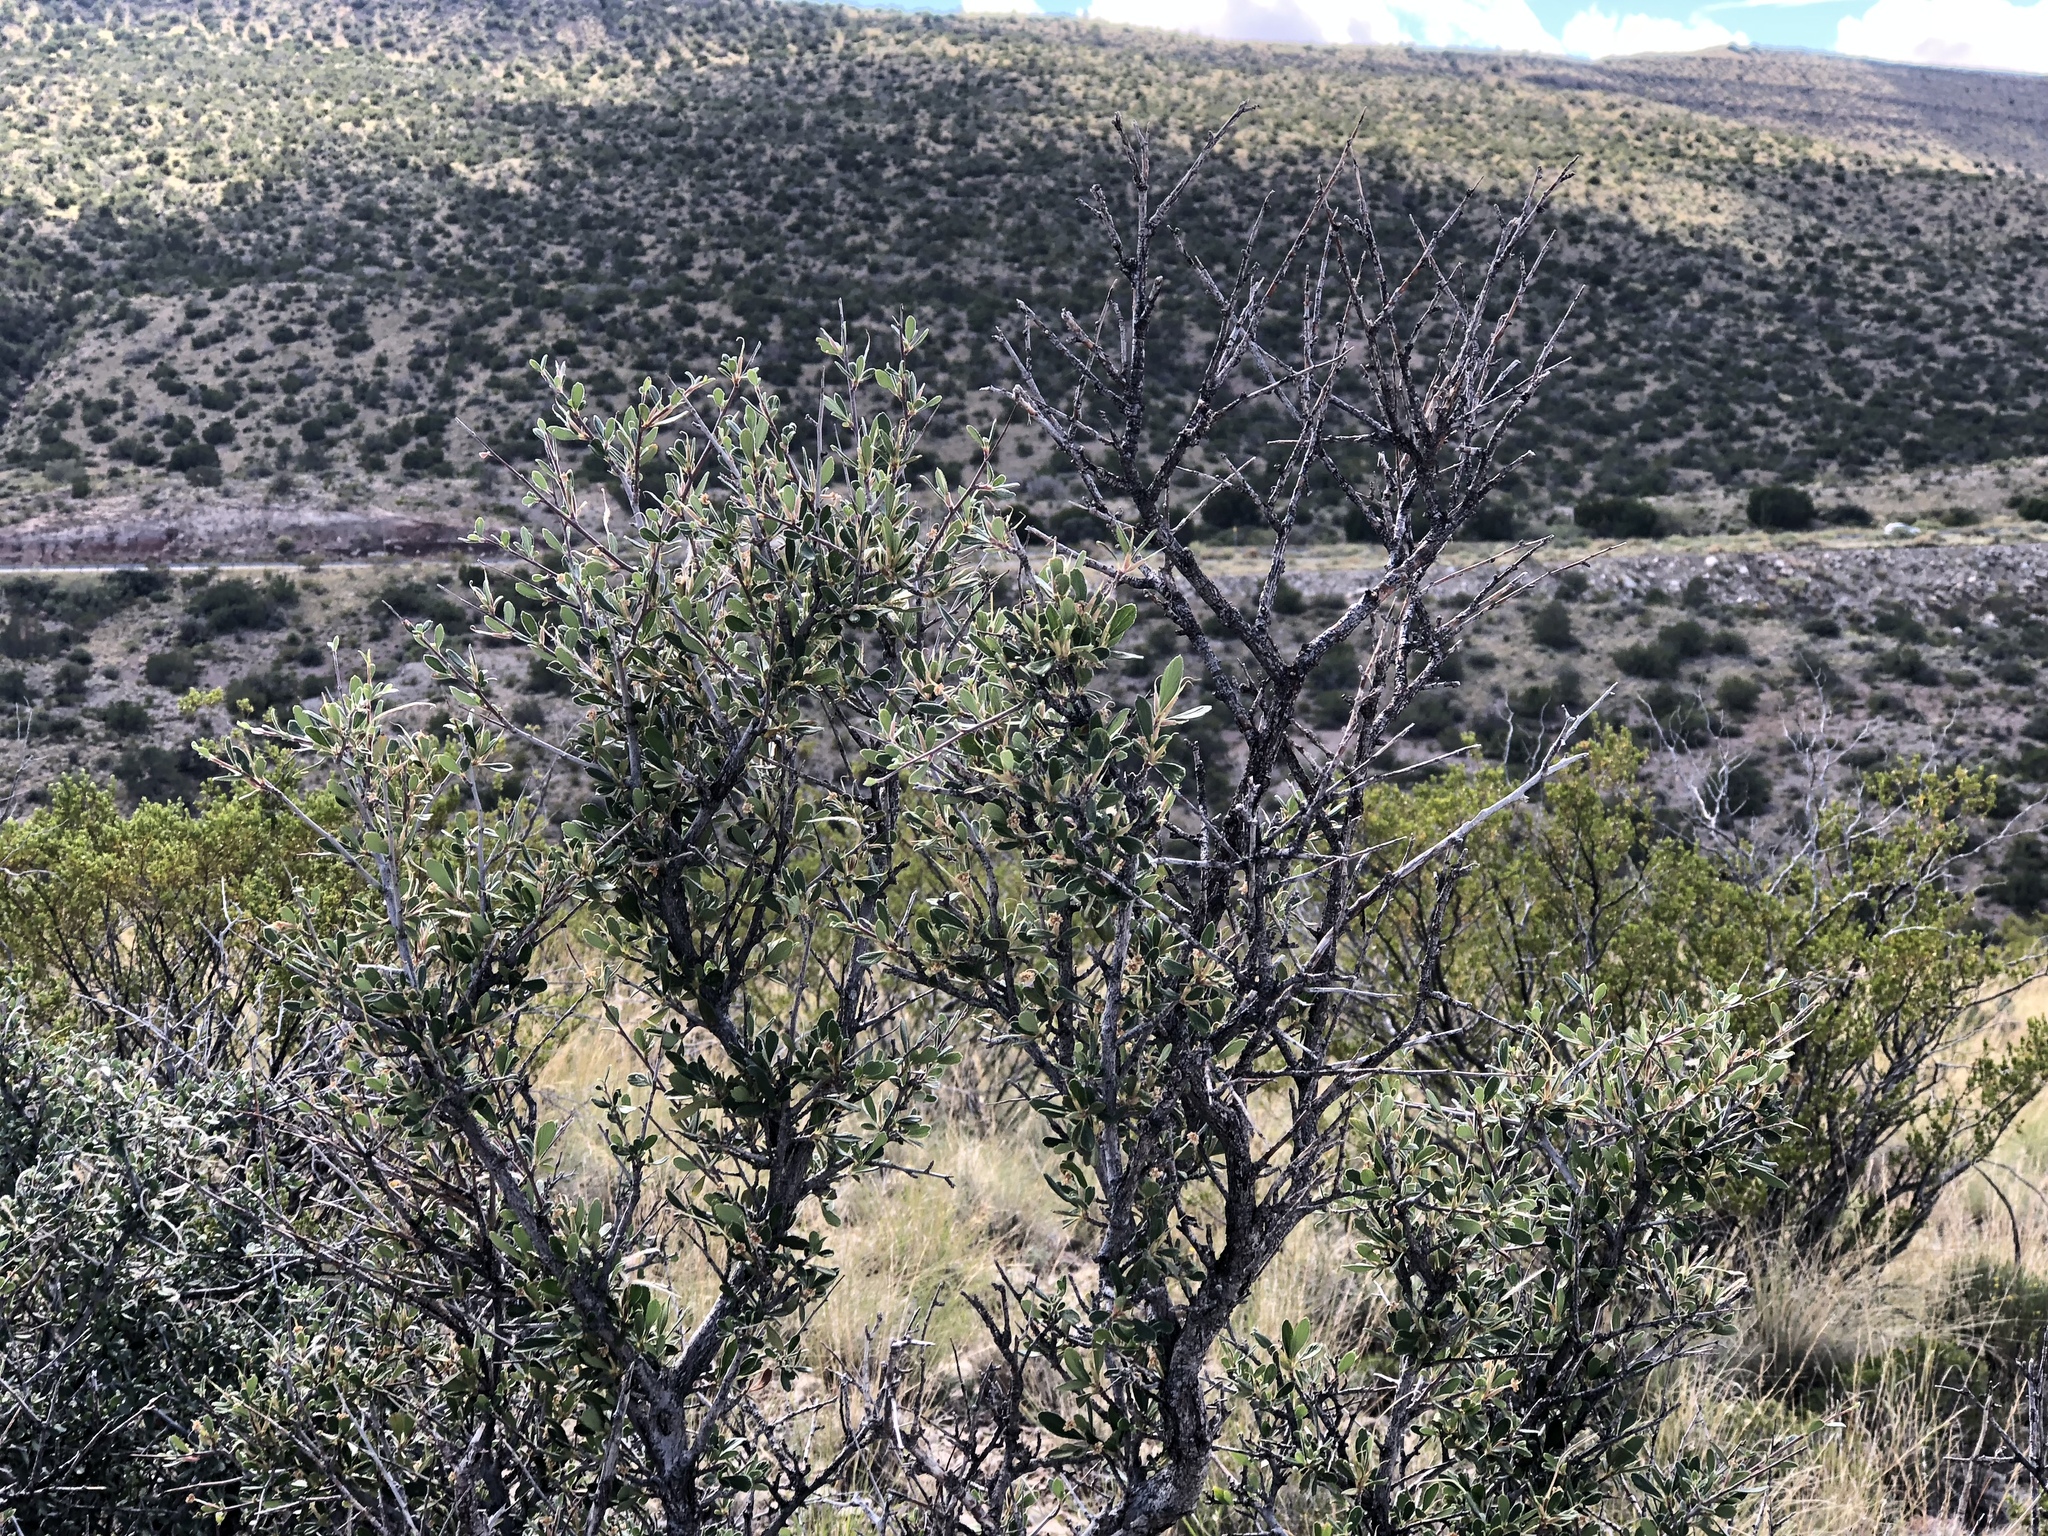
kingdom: Plantae
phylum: Tracheophyta
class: Magnoliopsida
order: Rosales
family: Rosaceae
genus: Cercocarpus
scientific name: Cercocarpus breviflorus
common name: Wright's mountain-mahogany
